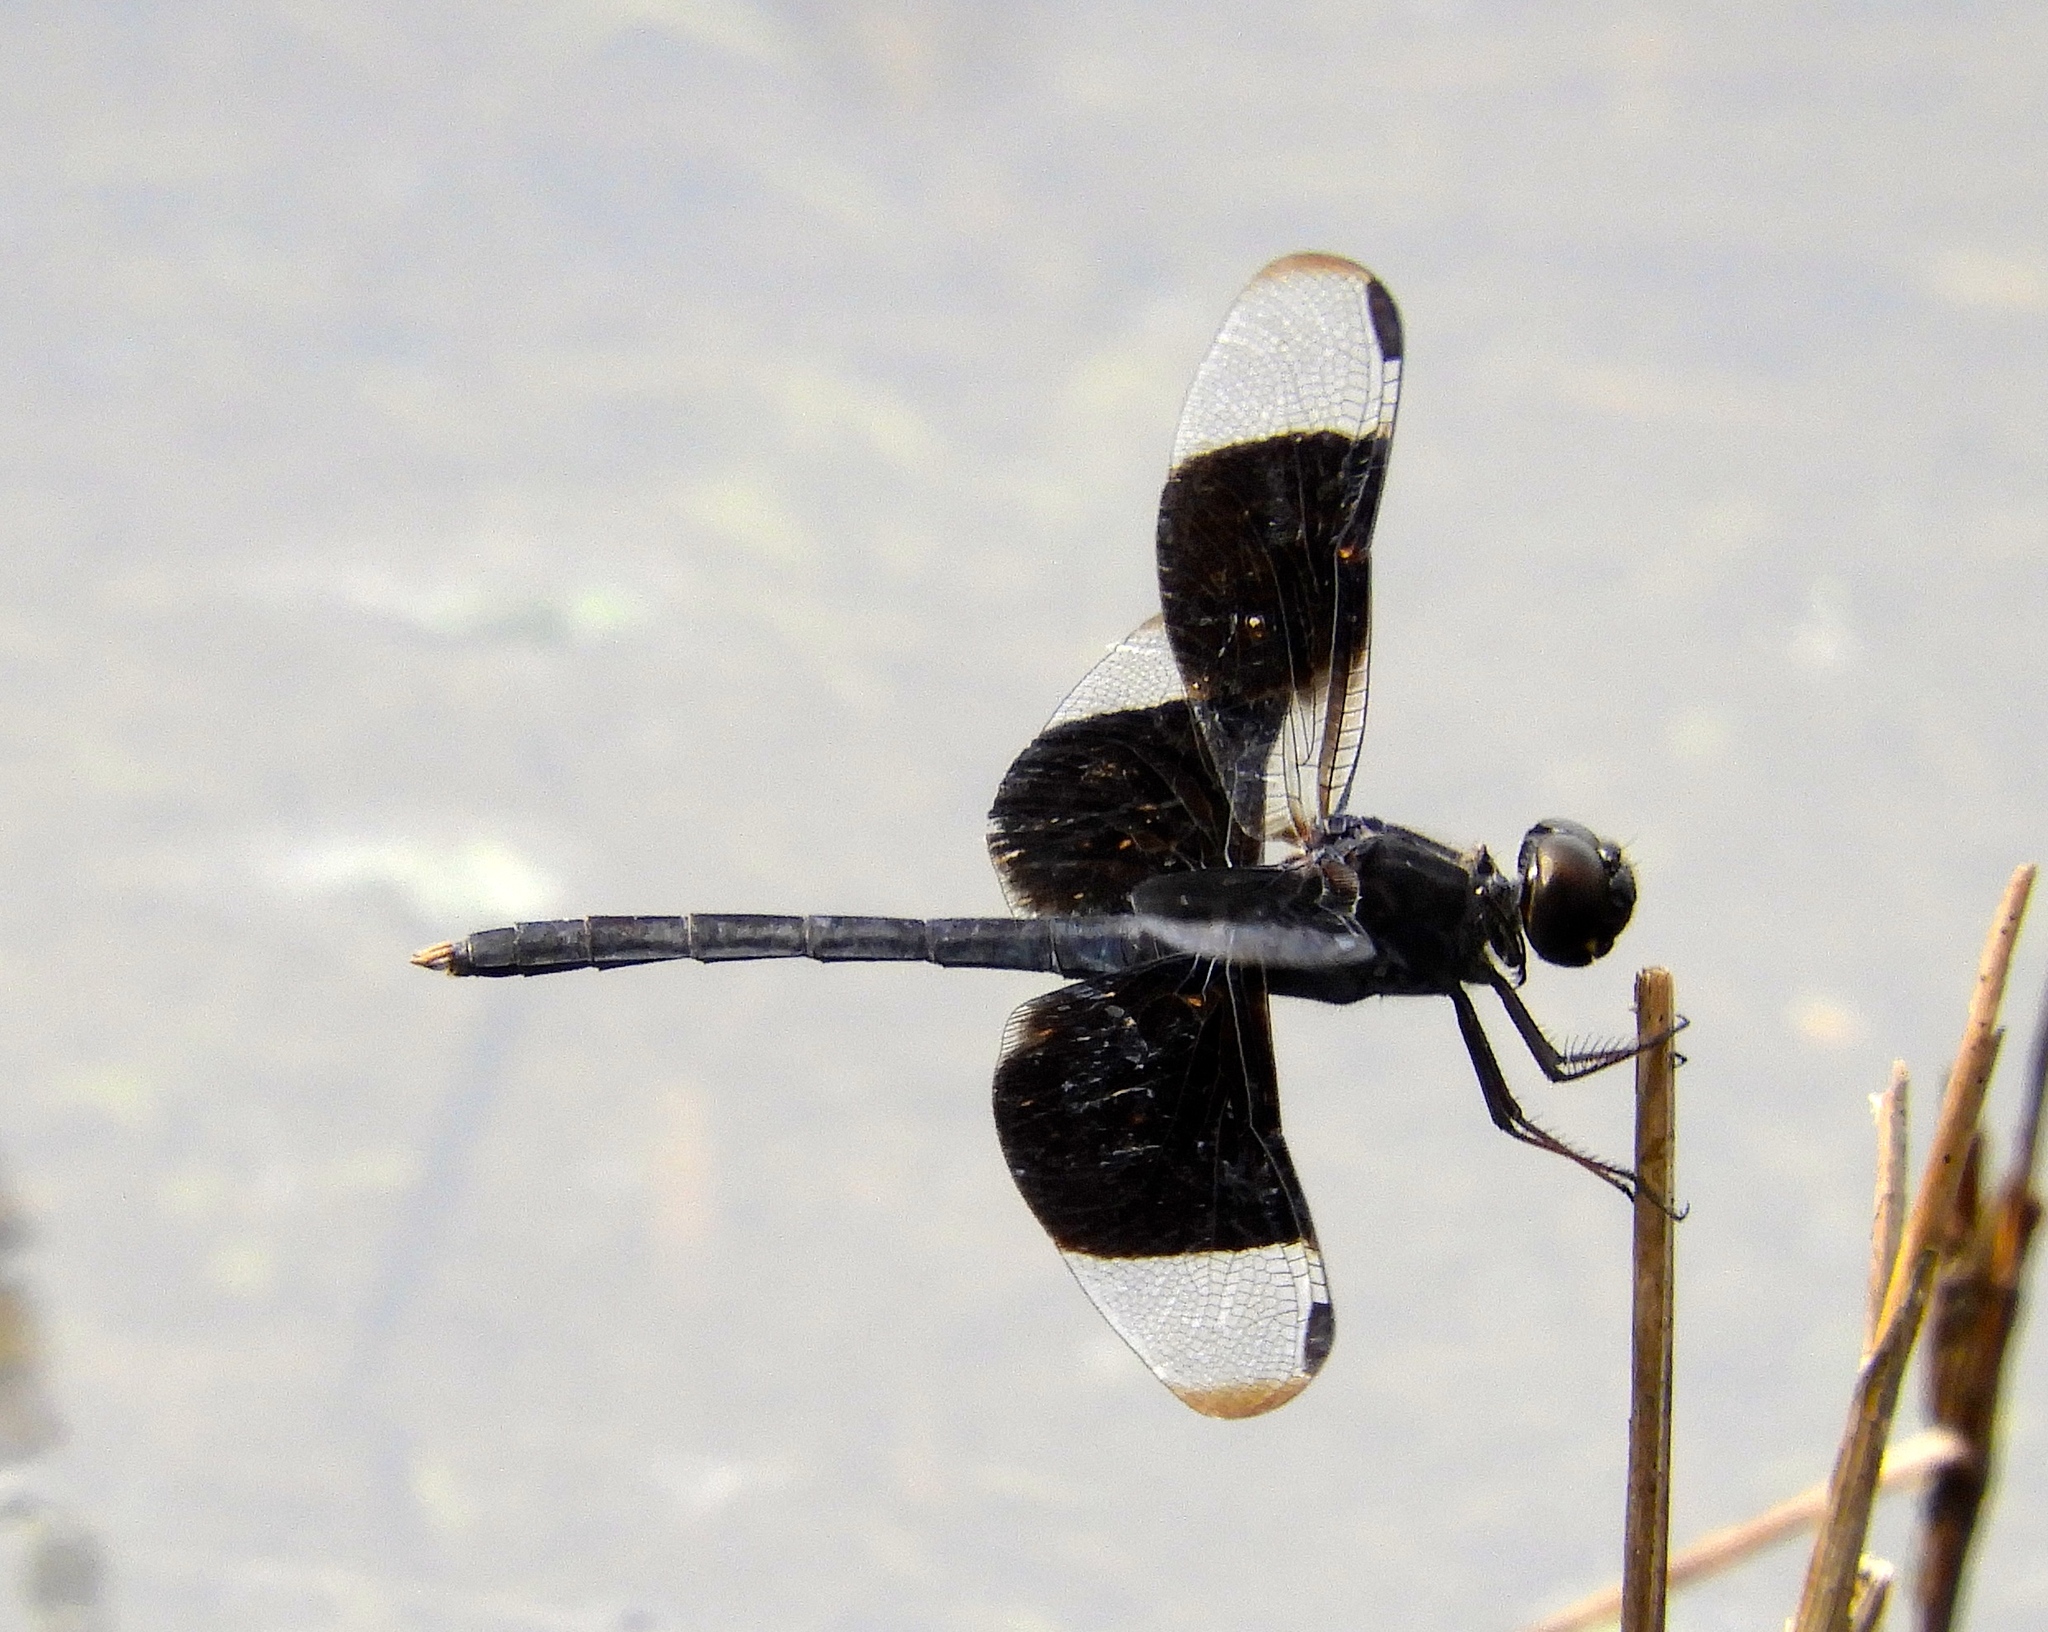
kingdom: Animalia
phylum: Arthropoda
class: Insecta
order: Odonata
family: Libellulidae
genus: Erythrodiplax
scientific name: Erythrodiplax funerea
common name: Black-winged dragonlet
